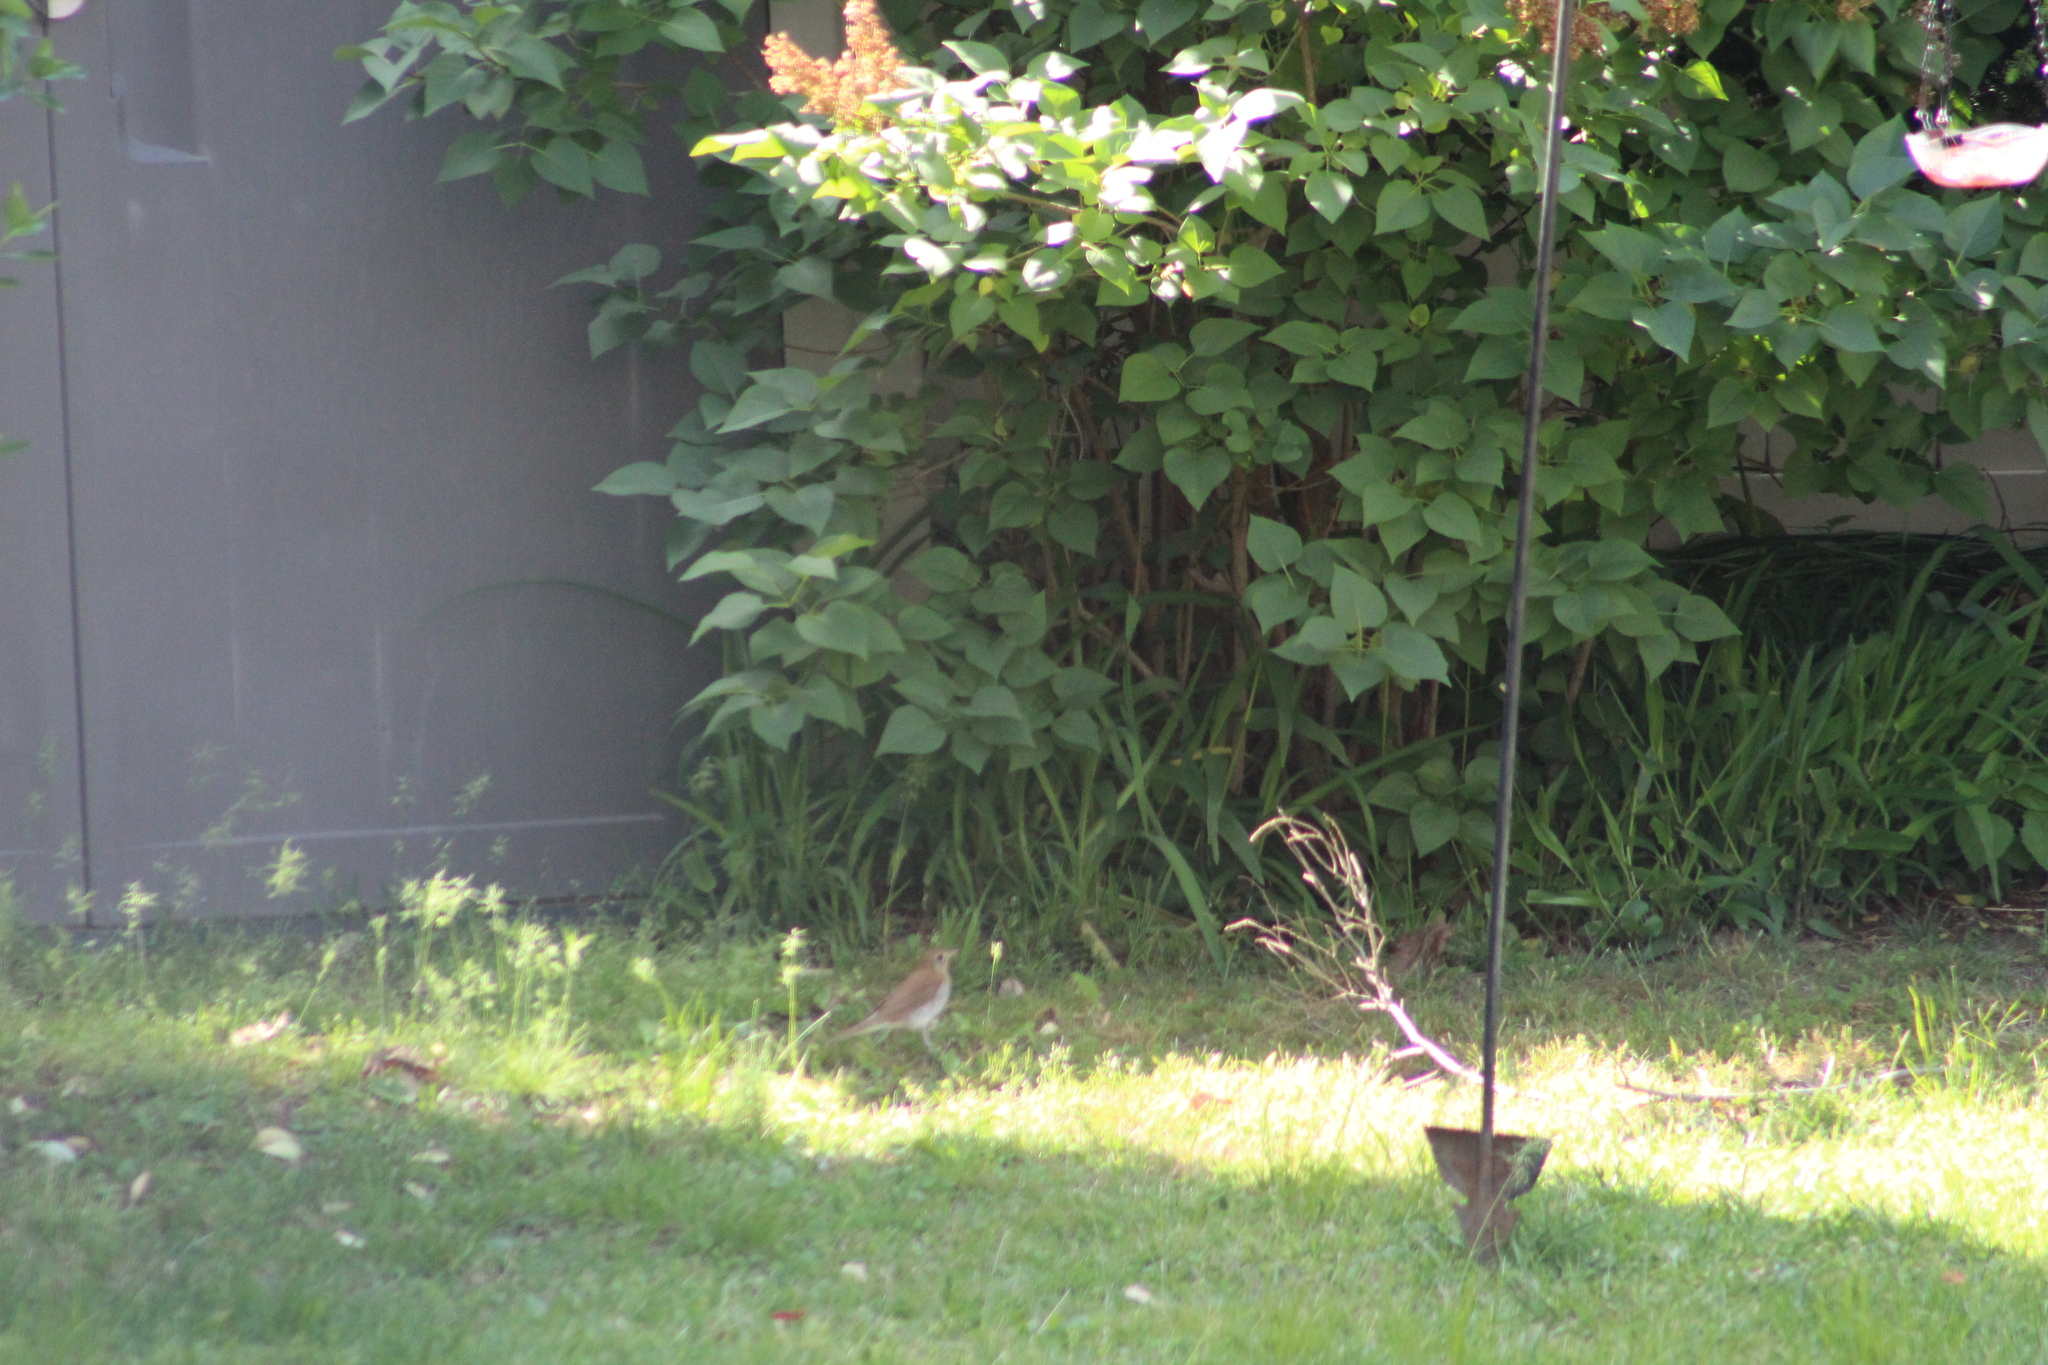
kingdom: Animalia
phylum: Chordata
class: Aves
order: Passeriformes
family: Turdidae
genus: Catharus
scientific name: Catharus fuscescens
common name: Veery
